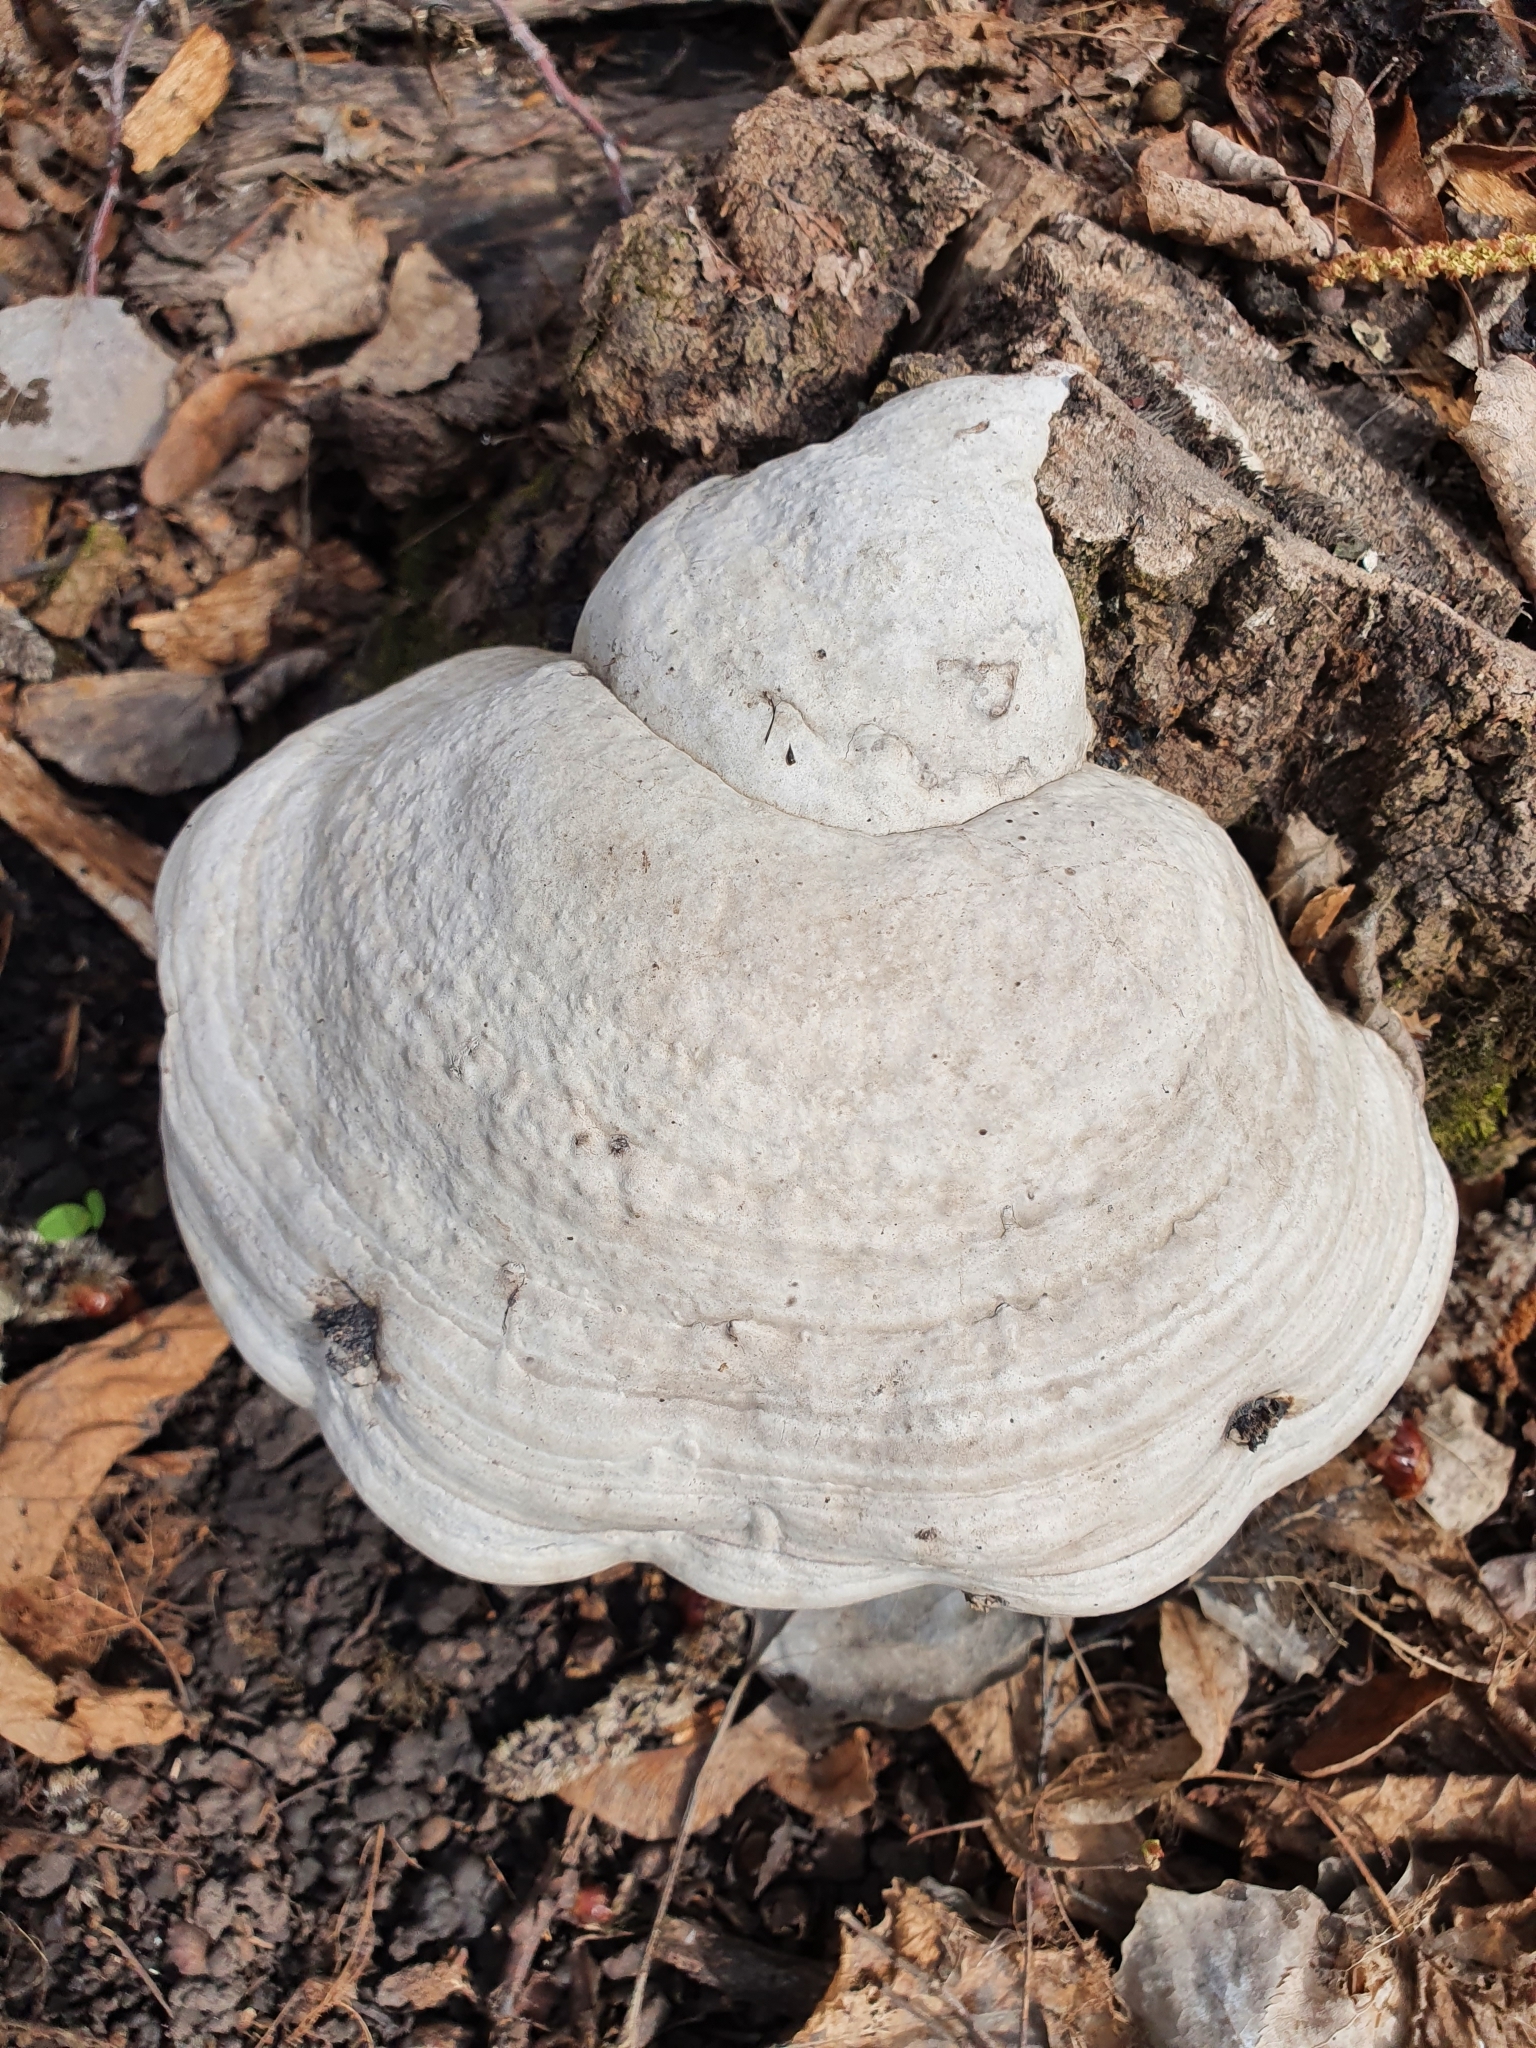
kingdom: Fungi
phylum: Basidiomycota
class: Agaricomycetes
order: Polyporales
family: Polyporaceae
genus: Fomes
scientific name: Fomes fomentarius
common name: Hoof fungus
